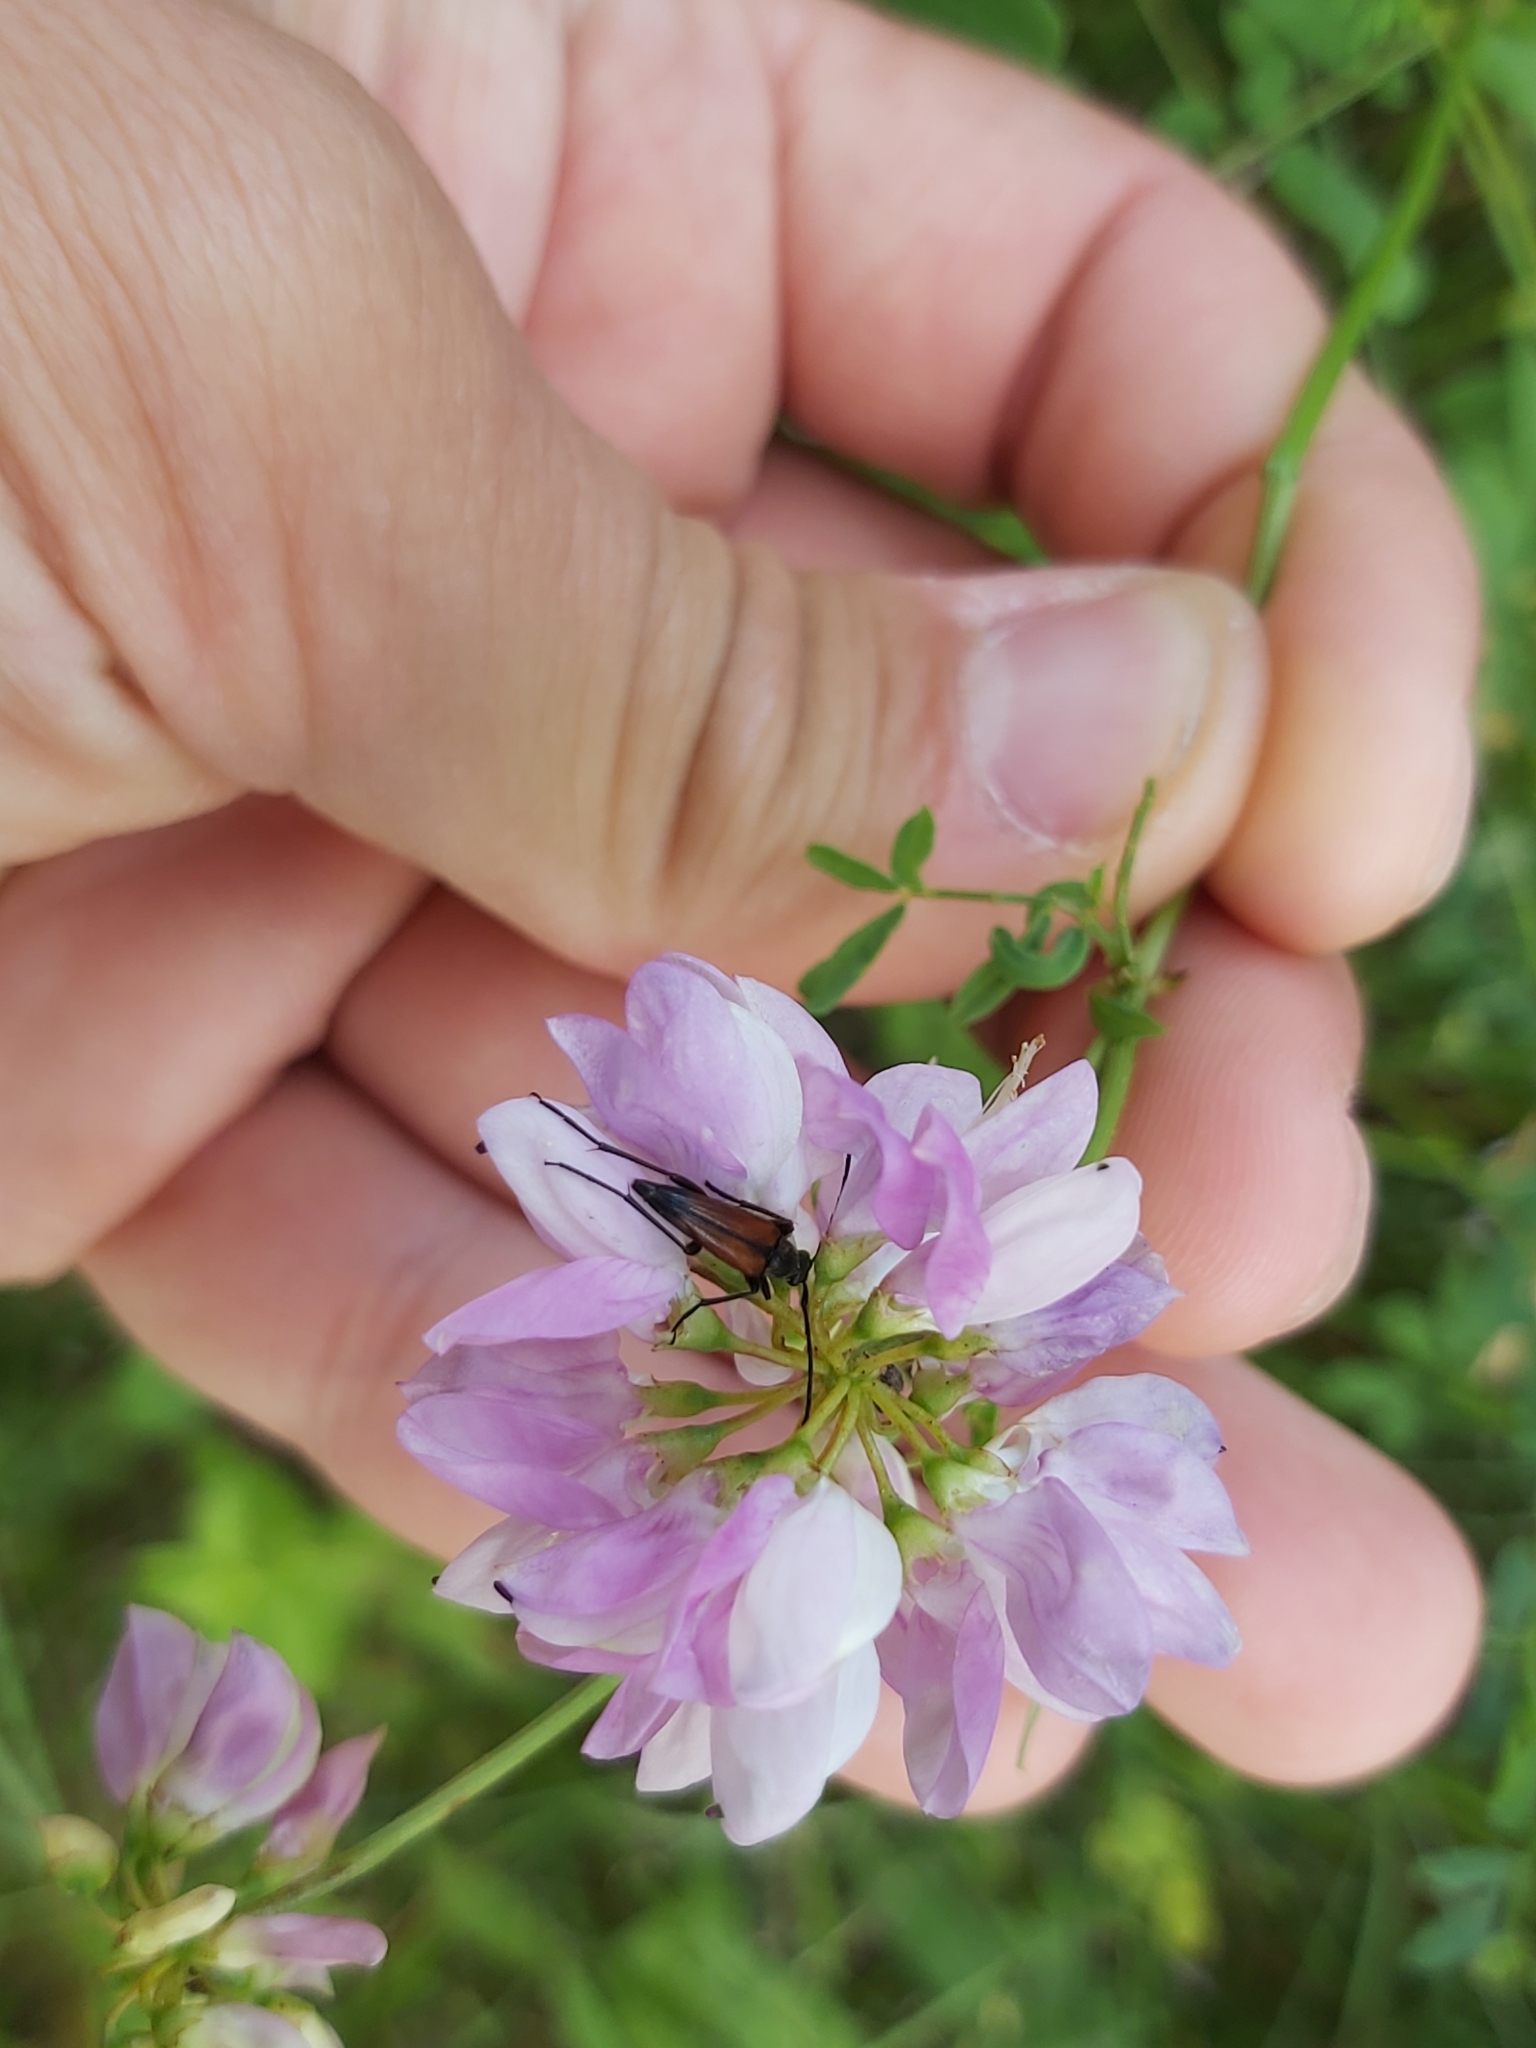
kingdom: Animalia
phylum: Arthropoda
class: Insecta
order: Coleoptera
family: Cerambycidae
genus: Stenurella
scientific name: Stenurella bifasciata
